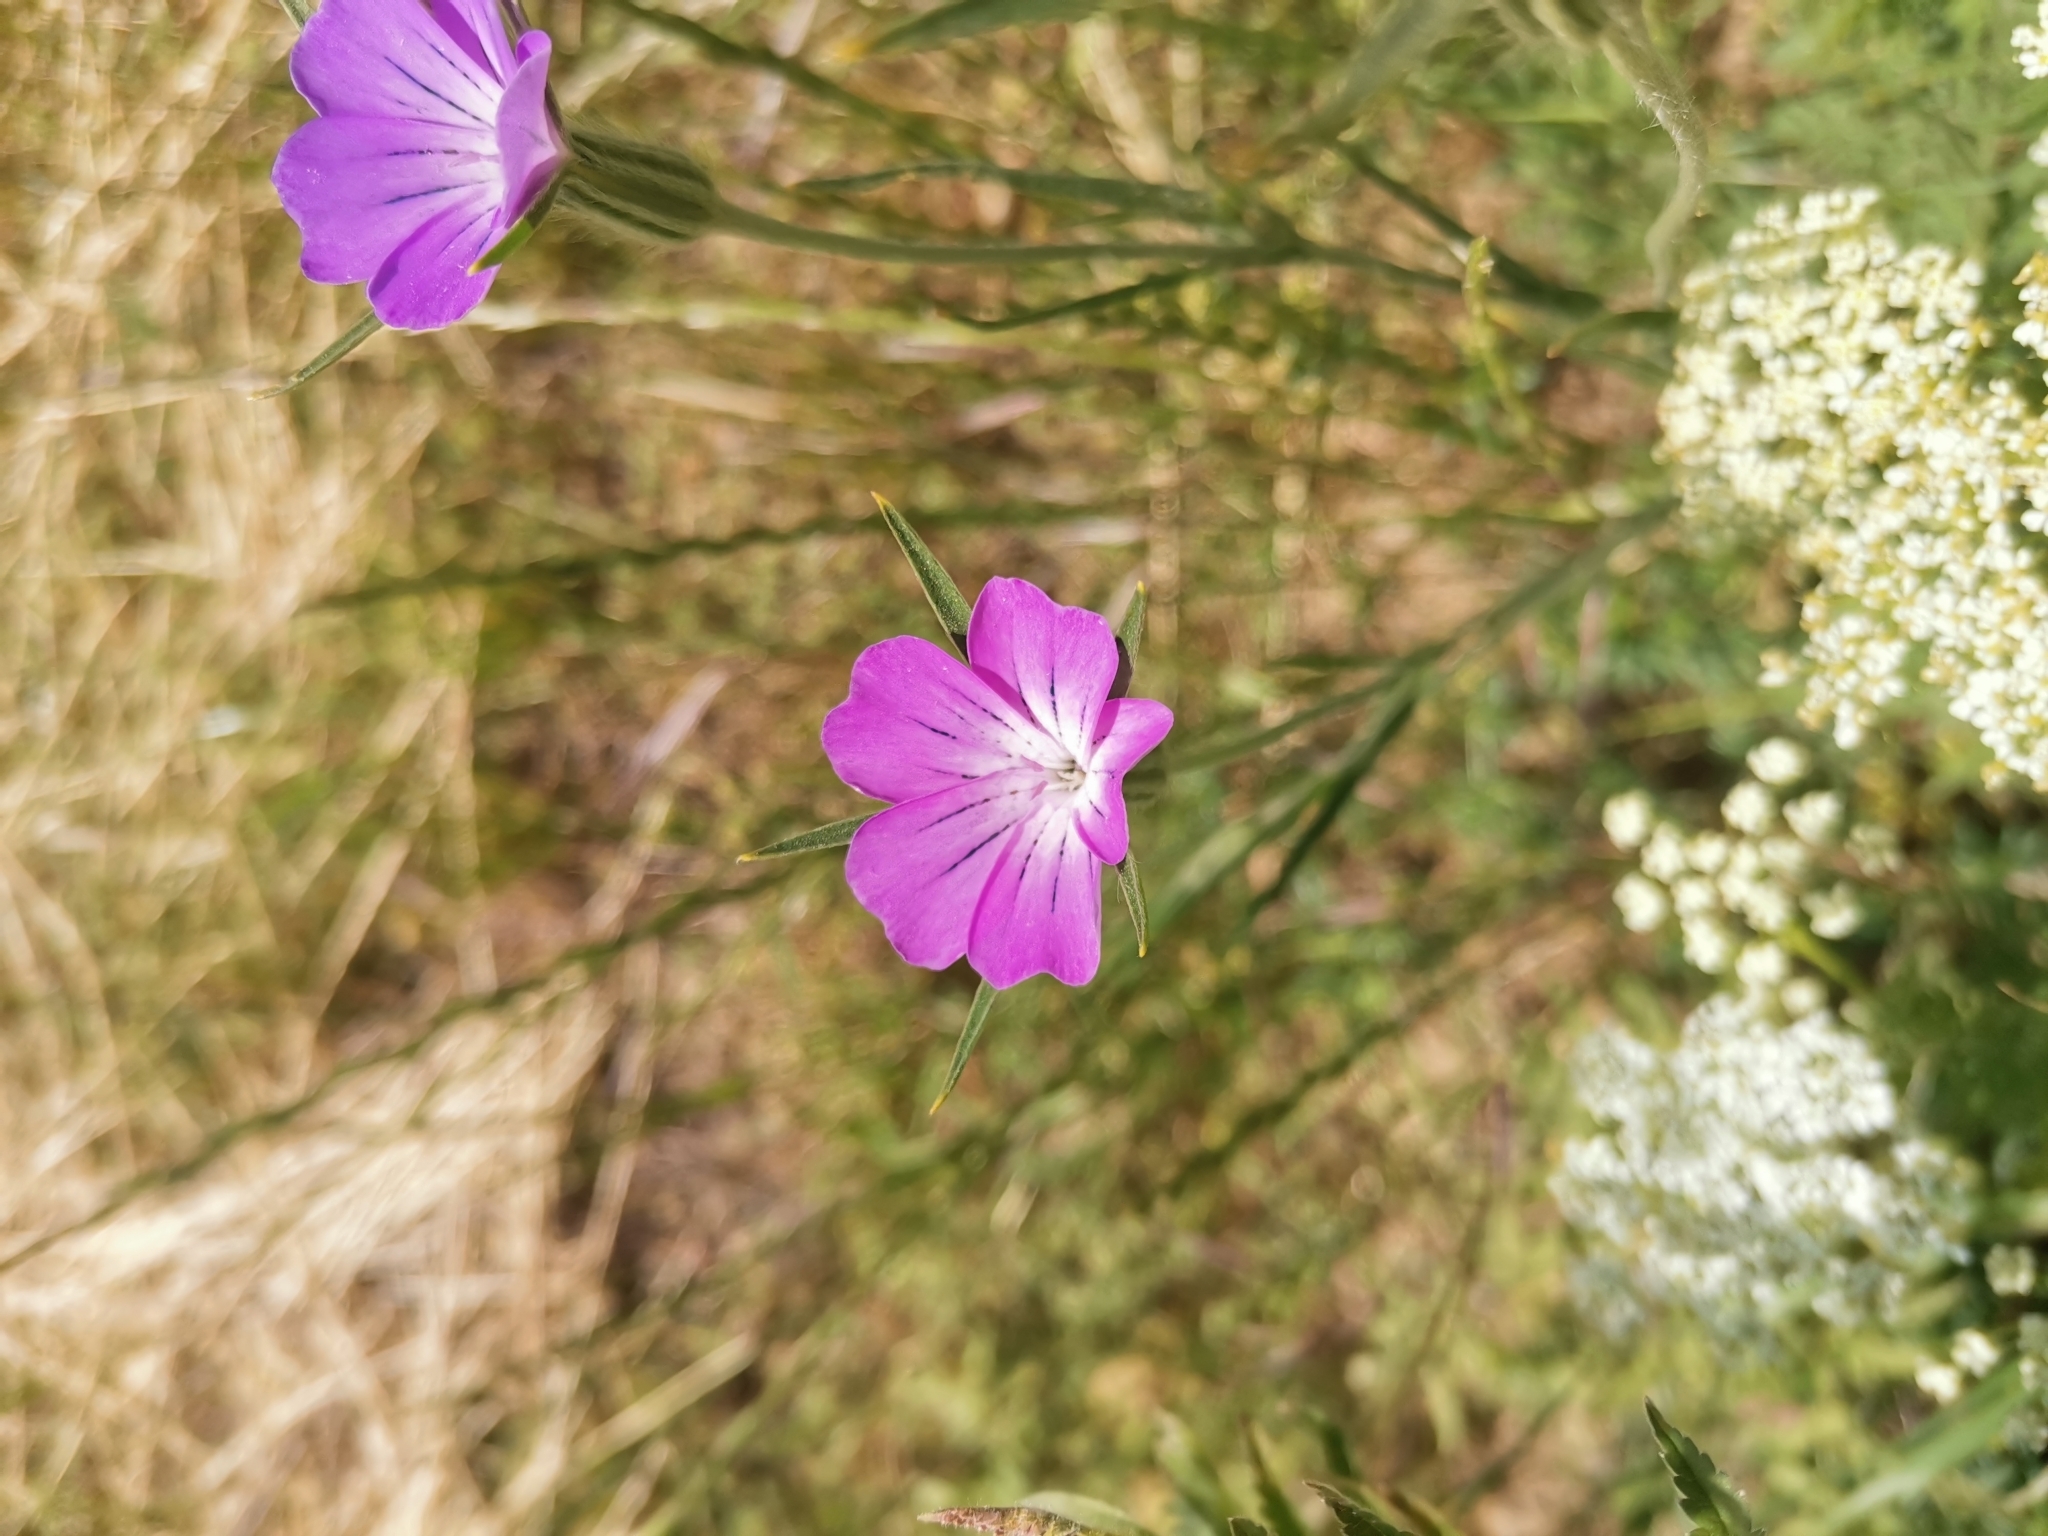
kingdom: Plantae
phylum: Tracheophyta
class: Magnoliopsida
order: Caryophyllales
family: Caryophyllaceae
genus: Agrostemma
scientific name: Agrostemma githago
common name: Common corncockle
